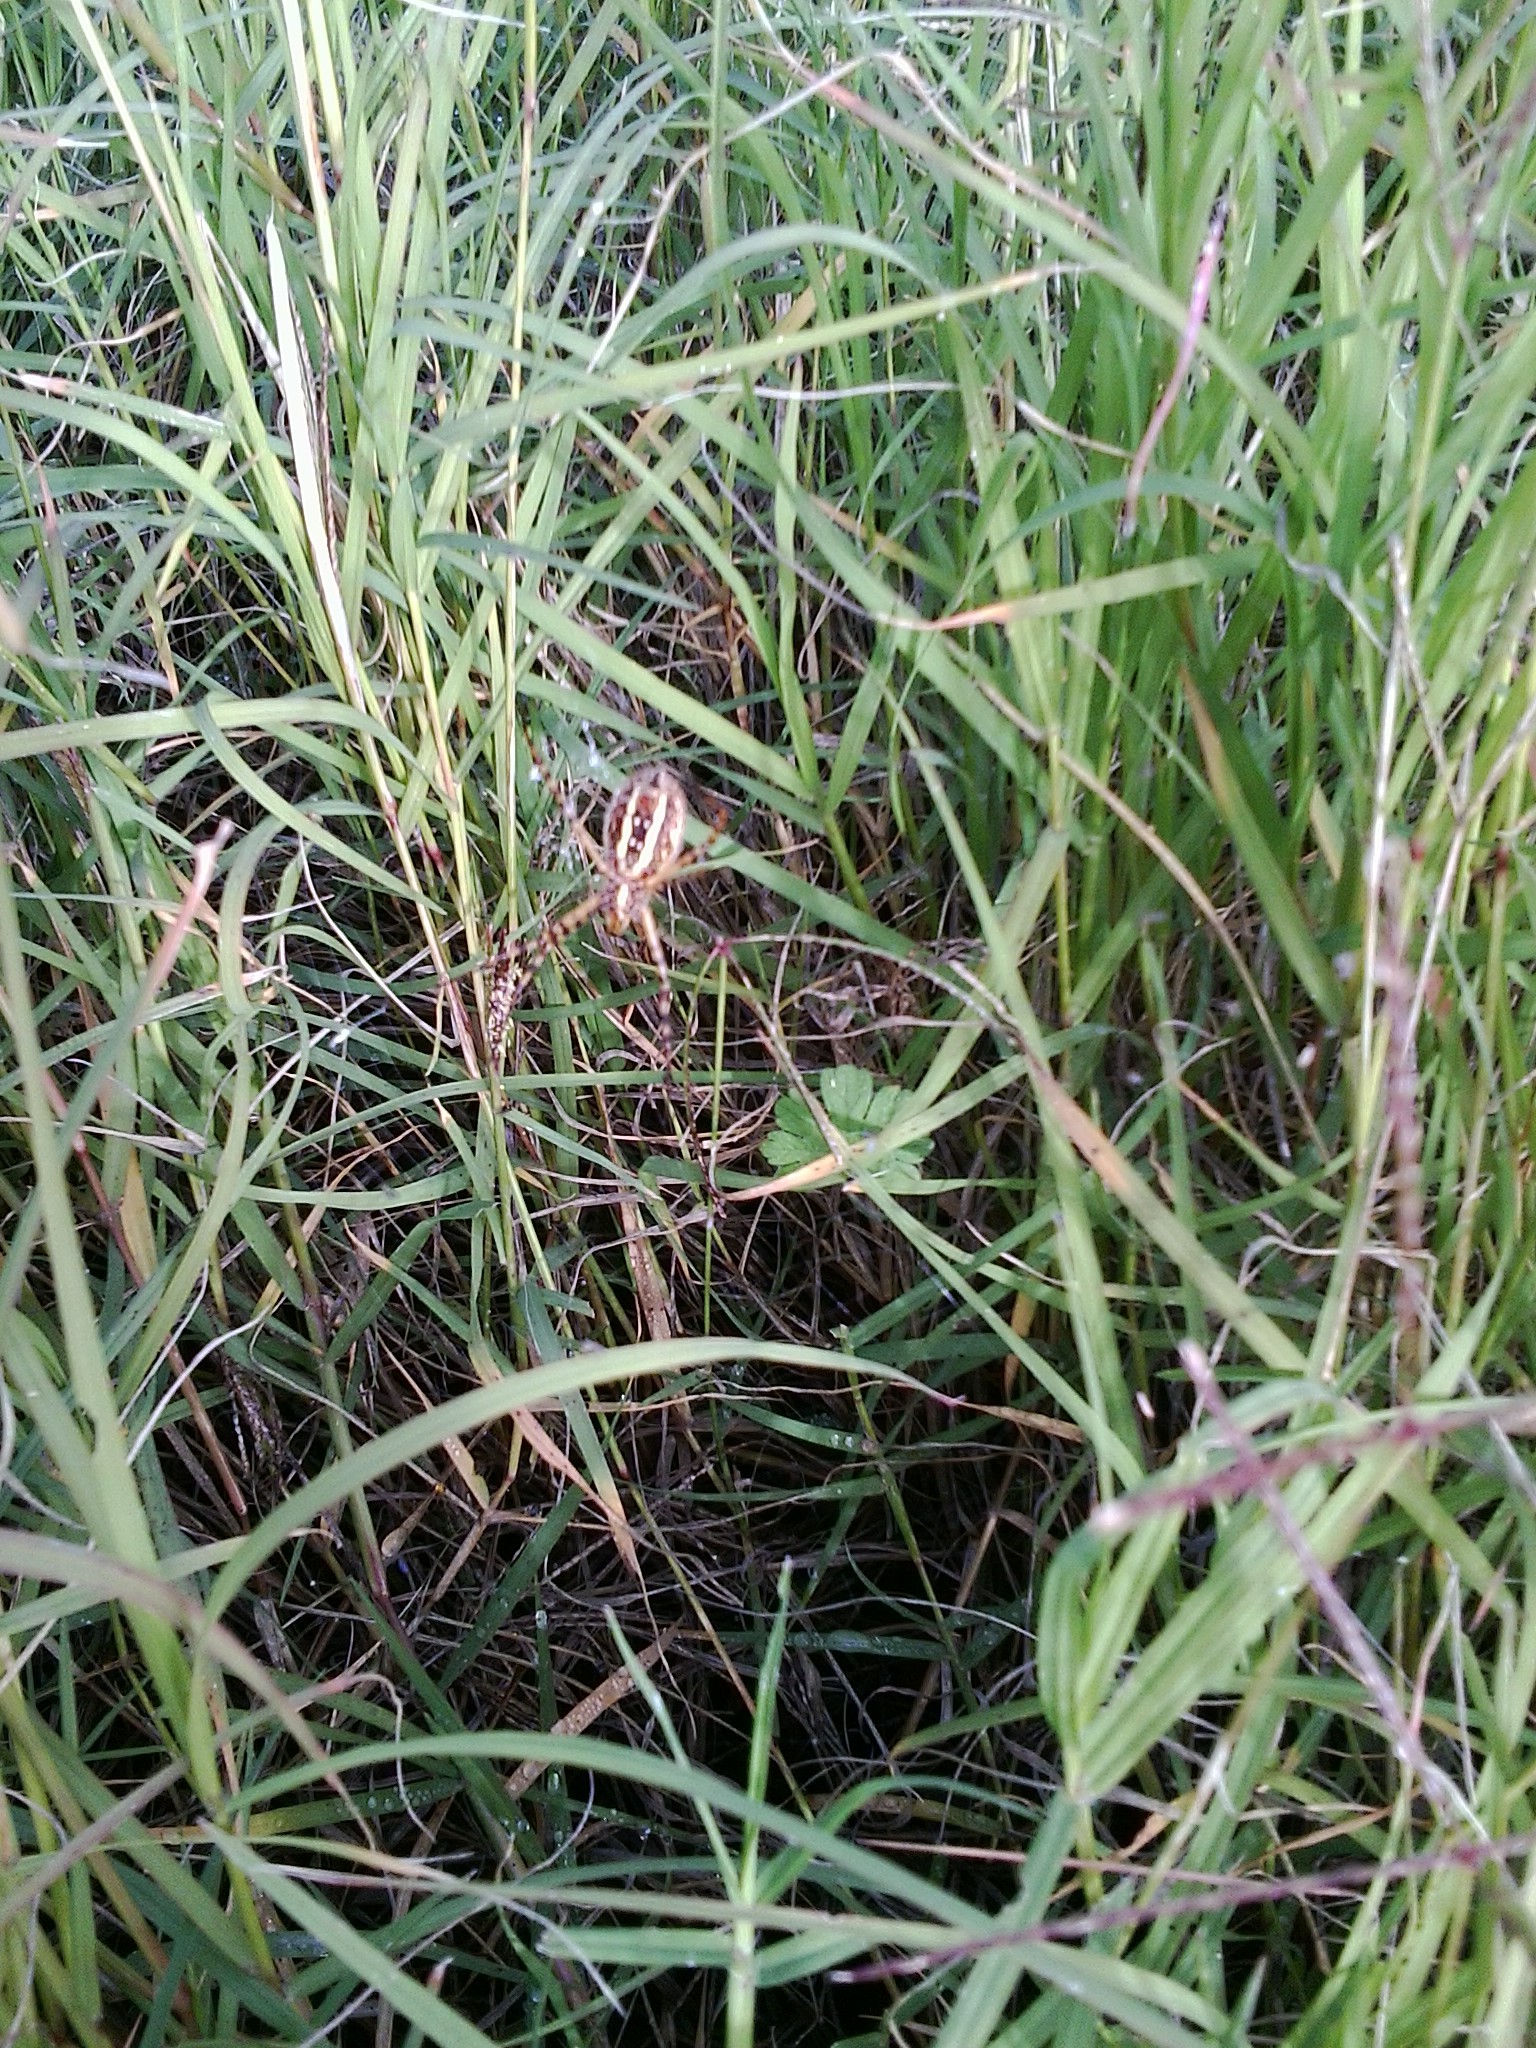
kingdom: Animalia
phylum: Arthropoda
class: Arachnida
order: Araneae
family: Araneidae
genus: Argiope
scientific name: Argiope trifasciata
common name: Banded garden spider
